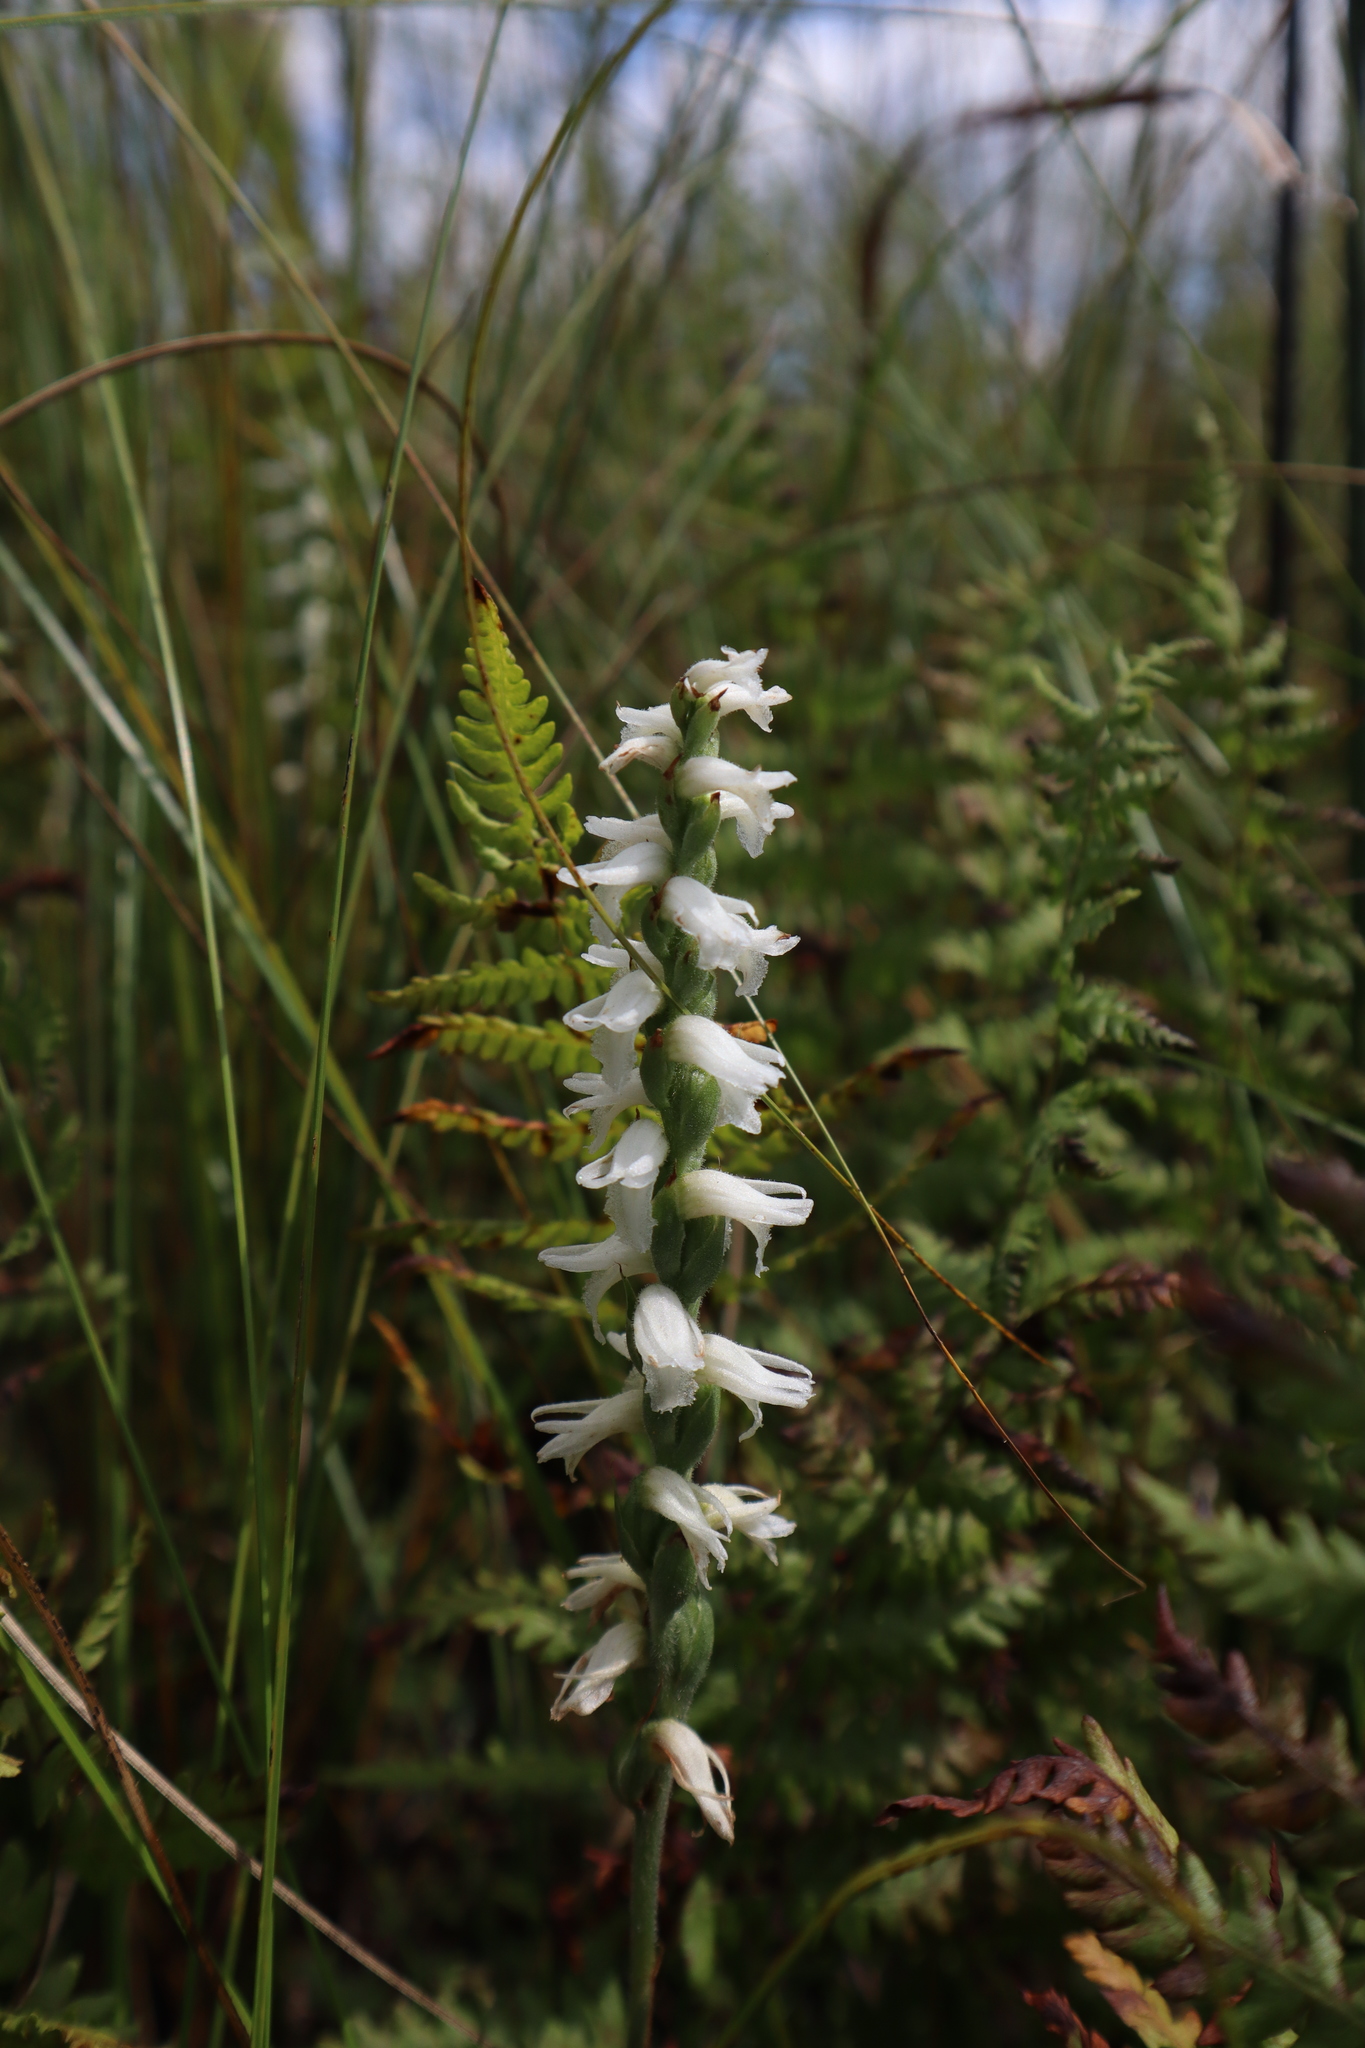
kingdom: Plantae
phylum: Tracheophyta
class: Liliopsida
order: Asparagales
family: Orchidaceae
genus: Spiranthes
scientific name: Spiranthes incurva
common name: Sphinx ladies'-tresses
